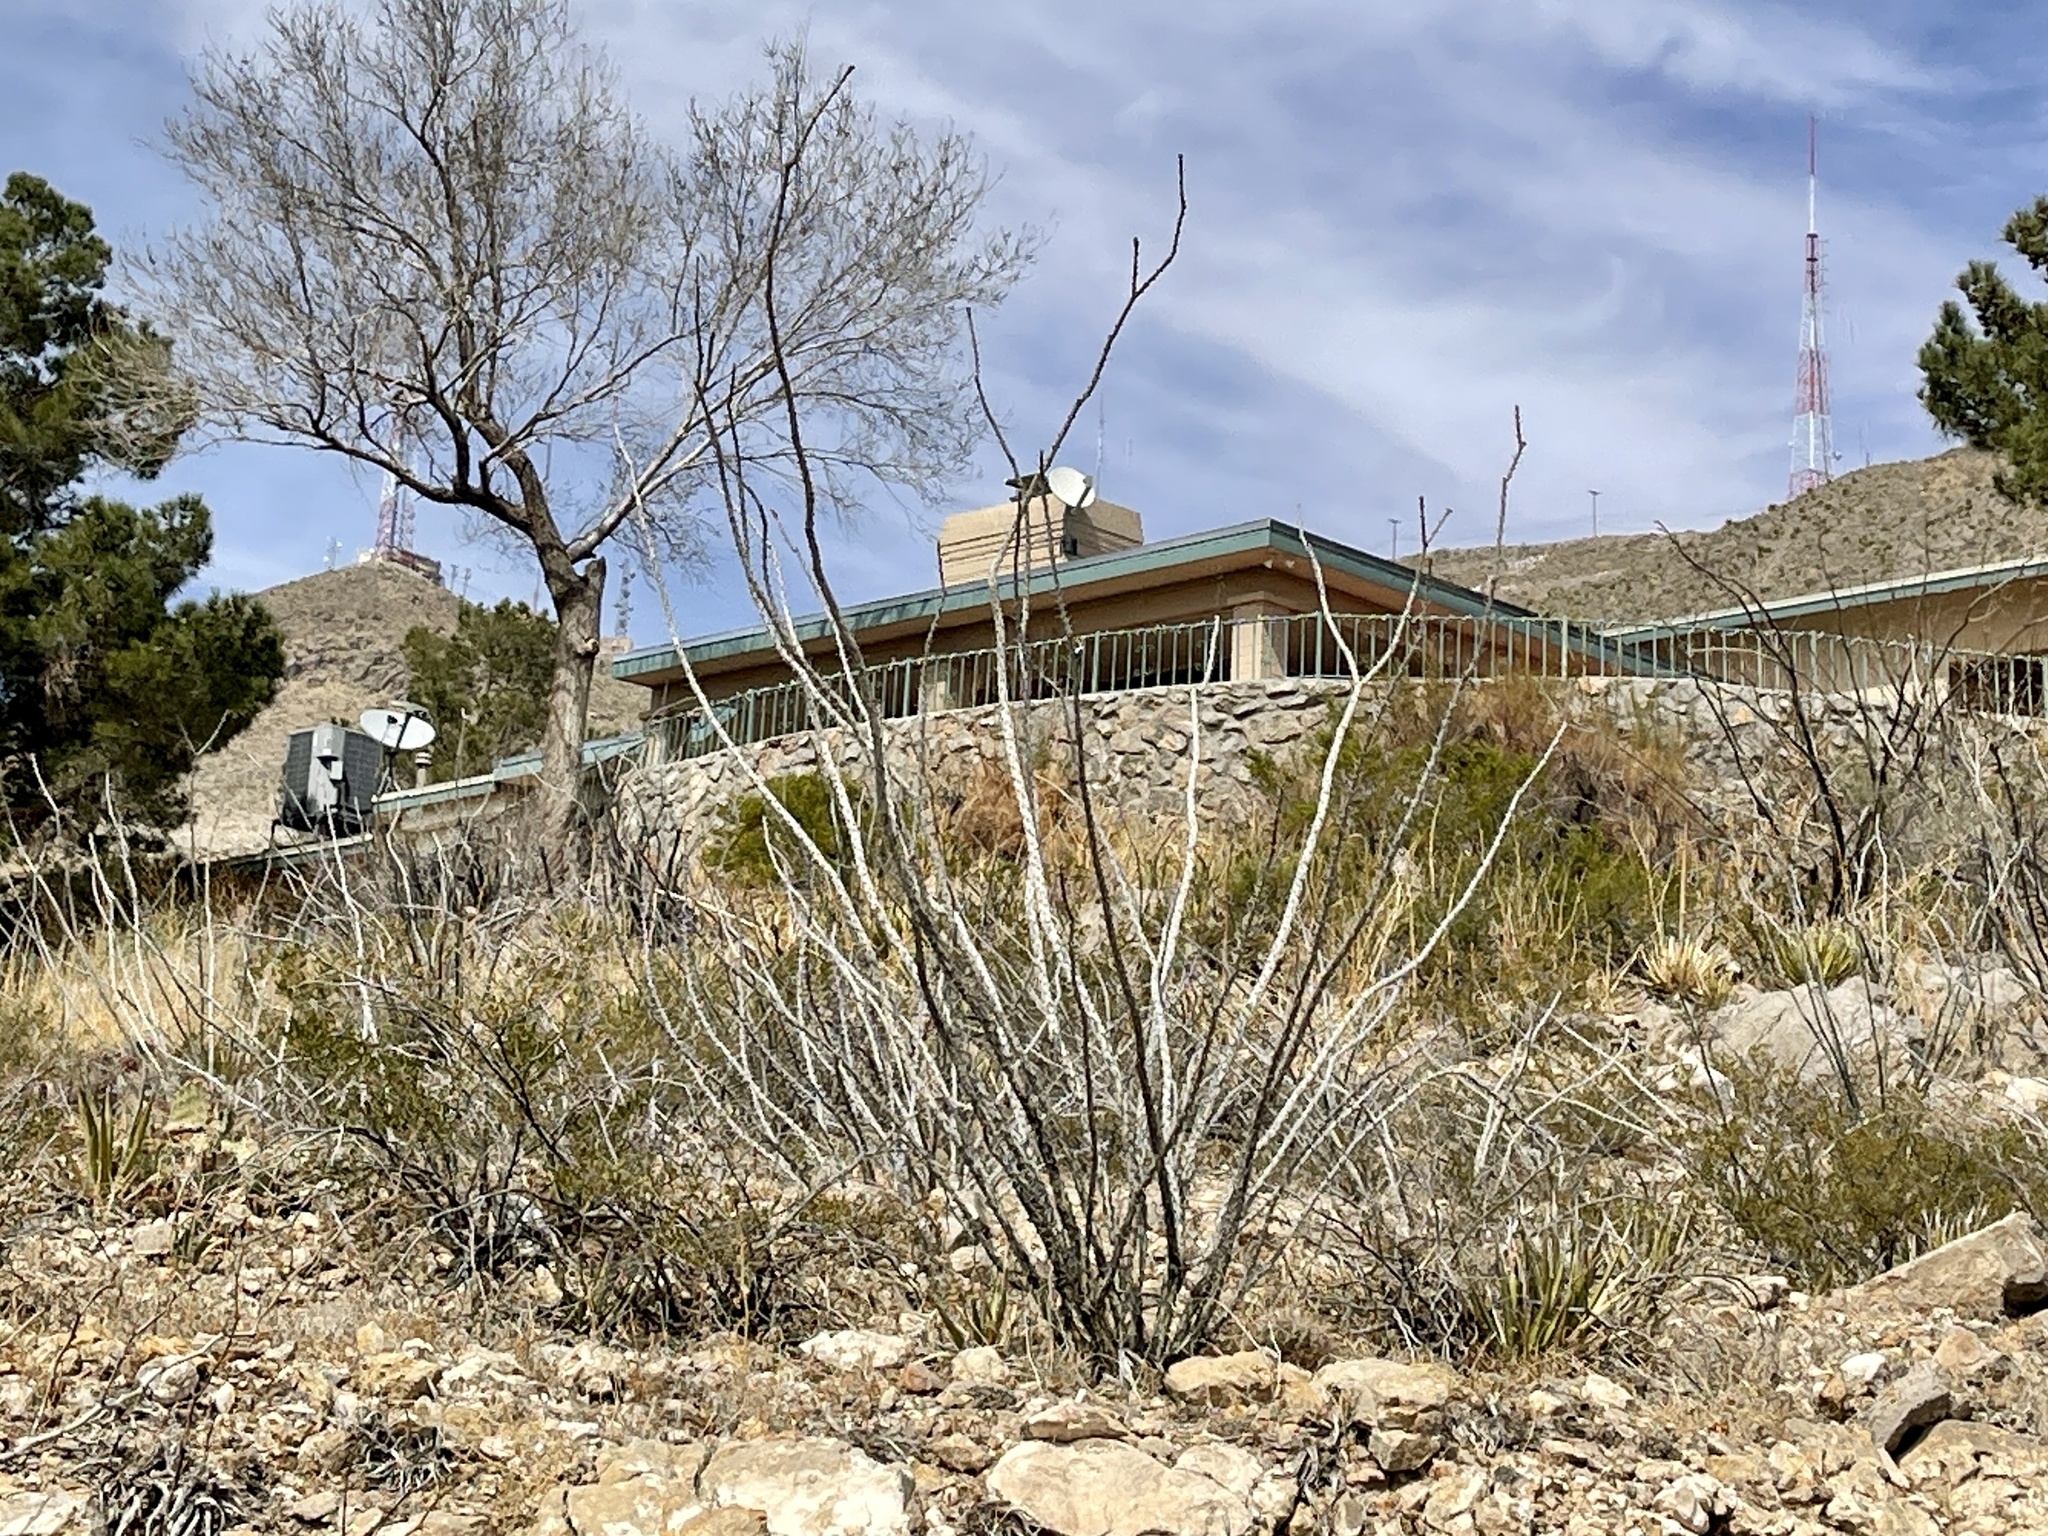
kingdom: Plantae
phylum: Tracheophyta
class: Magnoliopsida
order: Ericales
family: Fouquieriaceae
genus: Fouquieria
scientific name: Fouquieria splendens
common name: Vine-cactus
